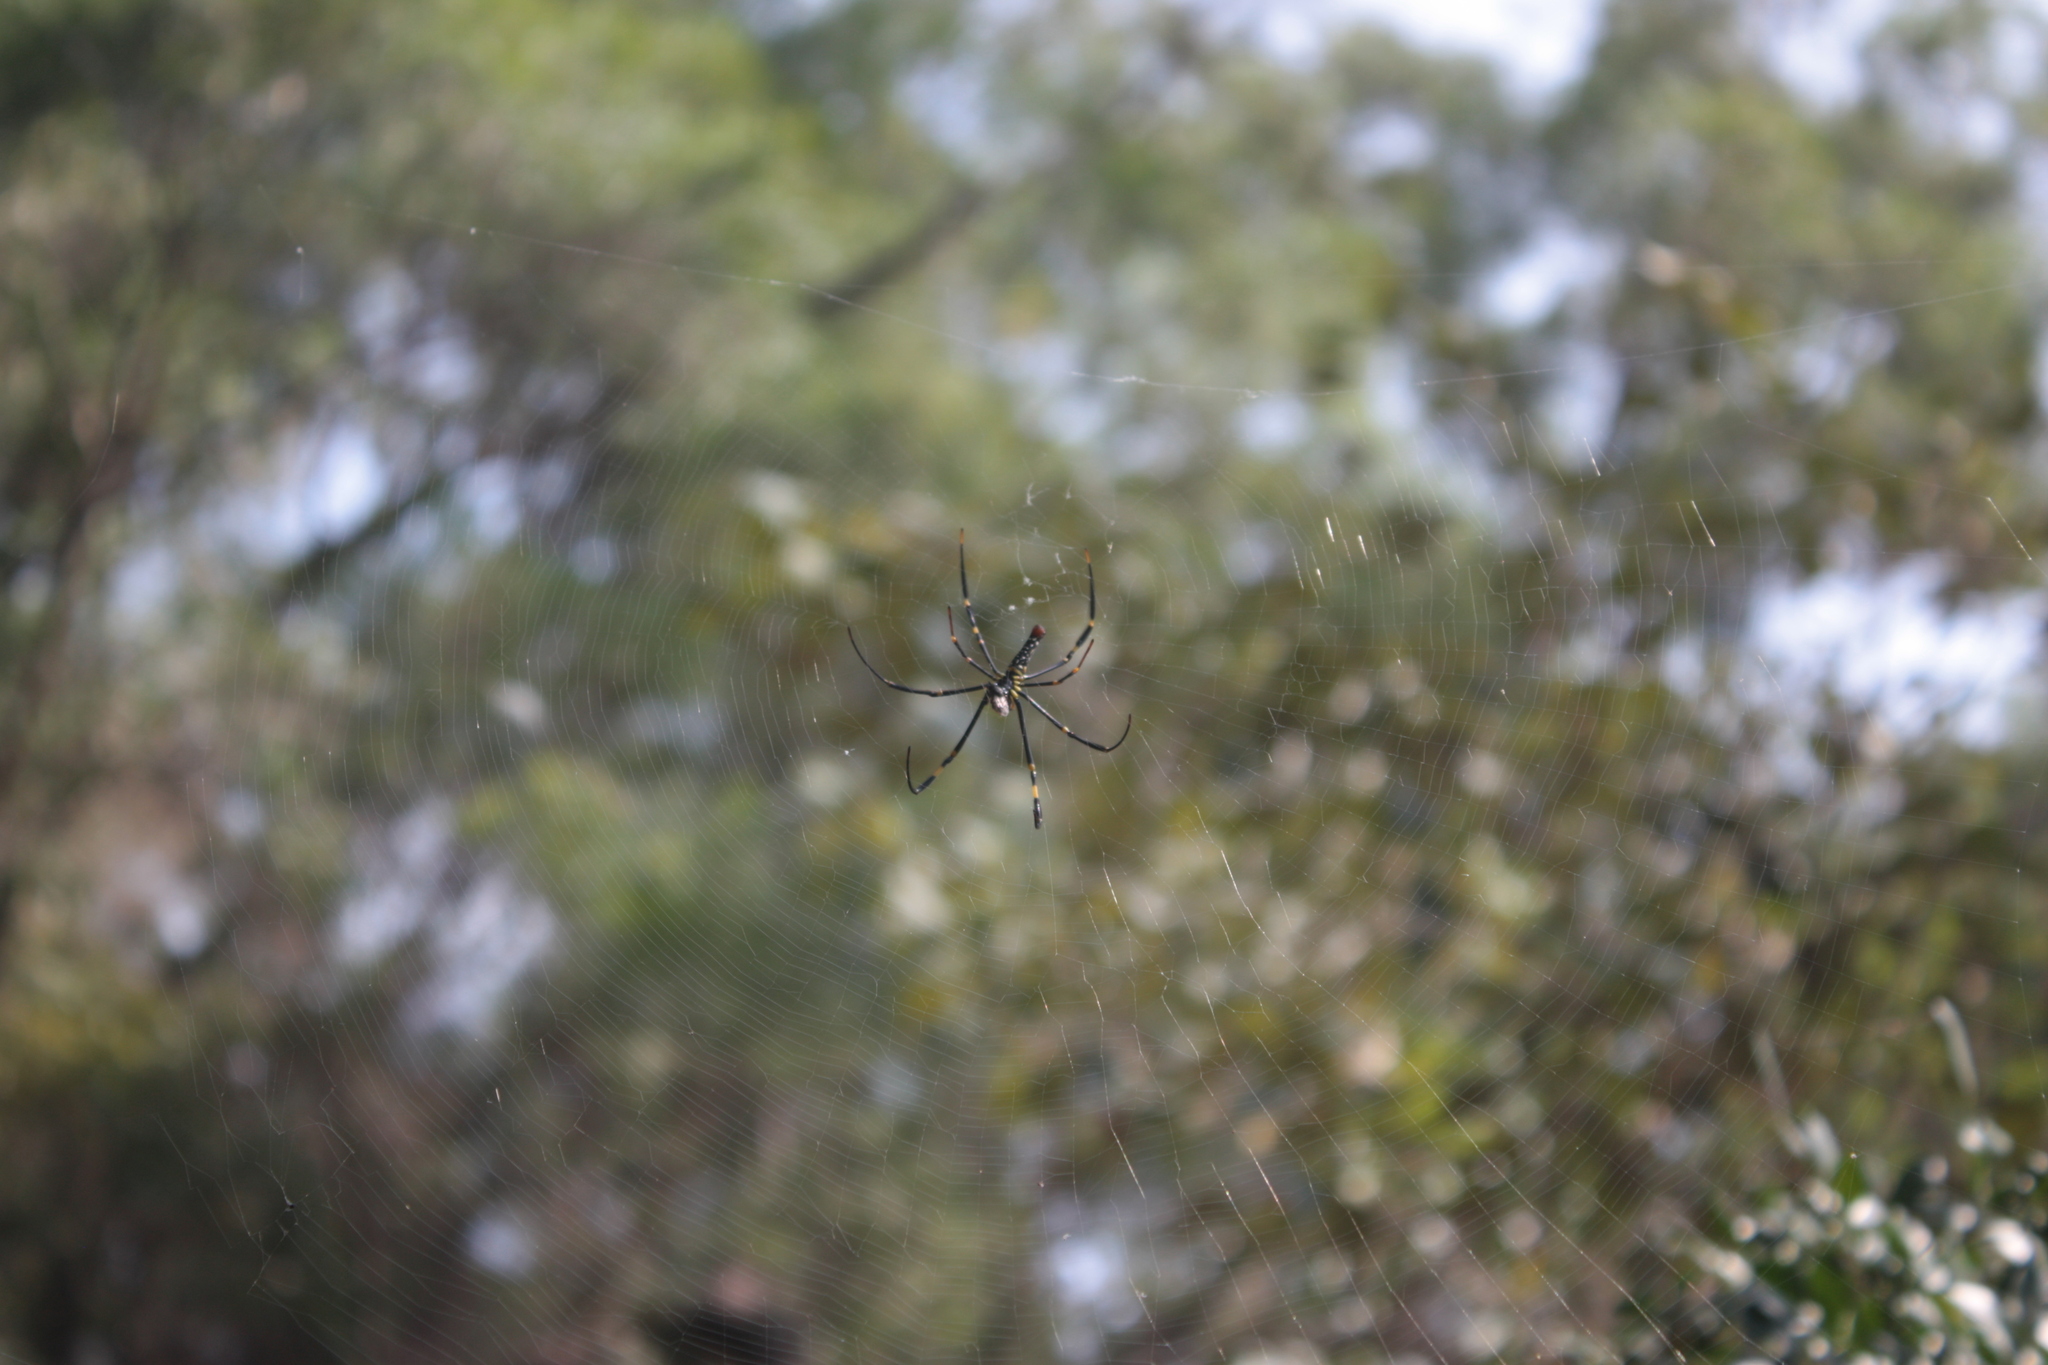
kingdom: Animalia
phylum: Arthropoda
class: Arachnida
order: Araneae
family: Araneidae
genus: Nephila
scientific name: Nephila pilipes
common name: Giant golden orb weaver
